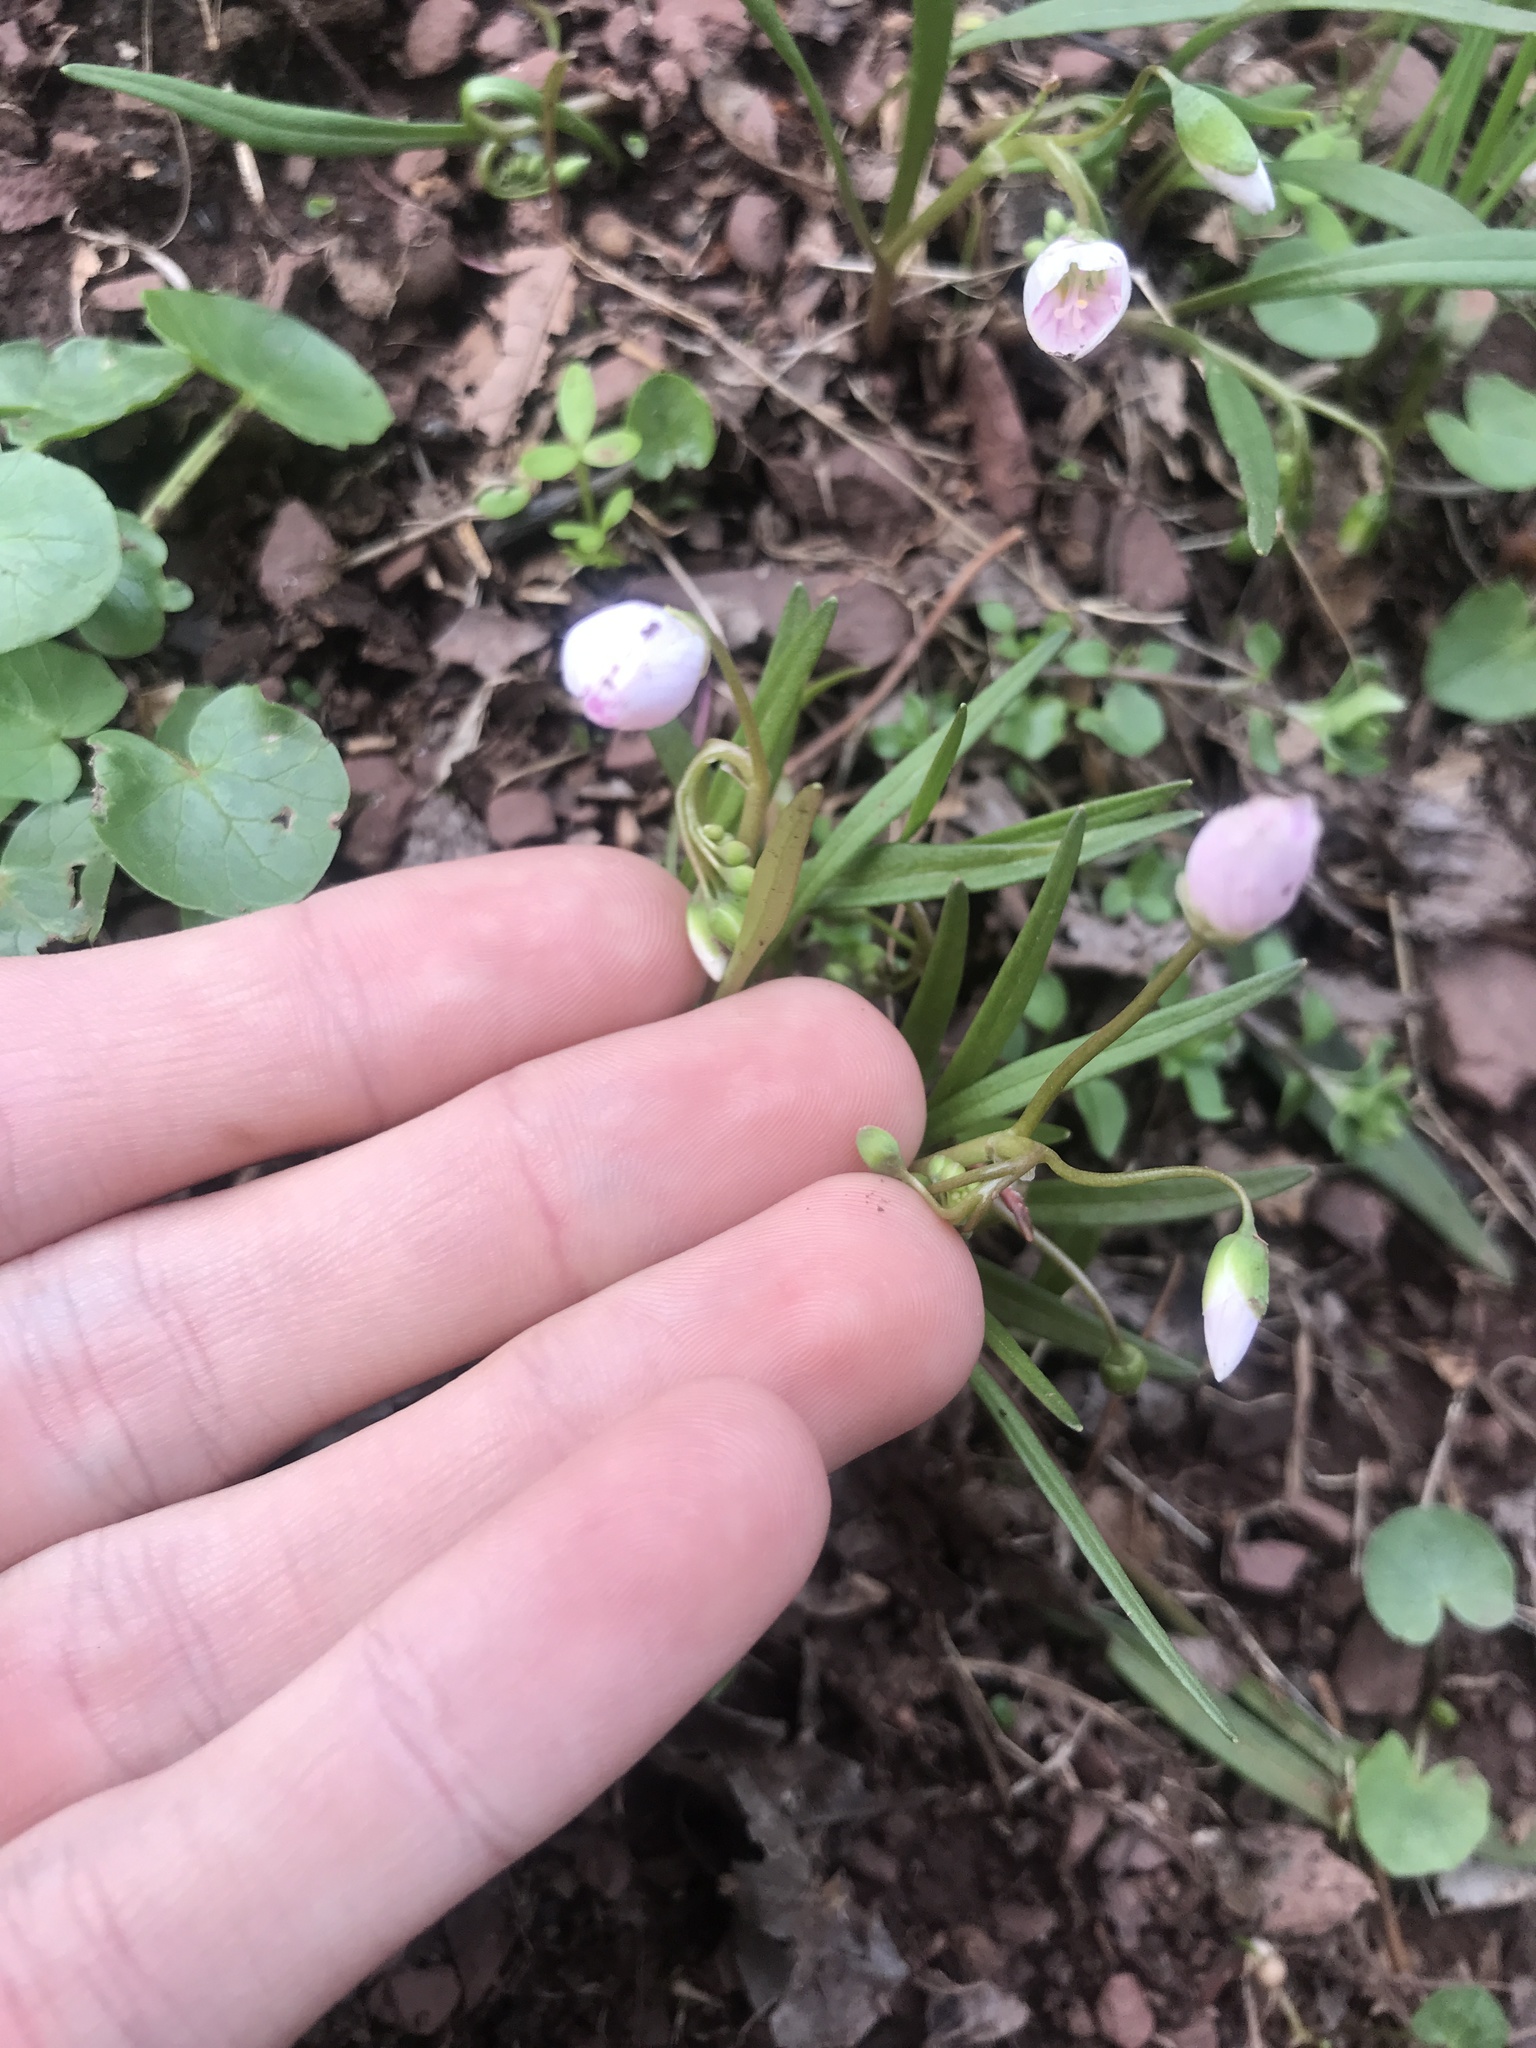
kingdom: Plantae
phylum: Tracheophyta
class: Magnoliopsida
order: Caryophyllales
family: Montiaceae
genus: Claytonia
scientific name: Claytonia virginica
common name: Virginia springbeauty
